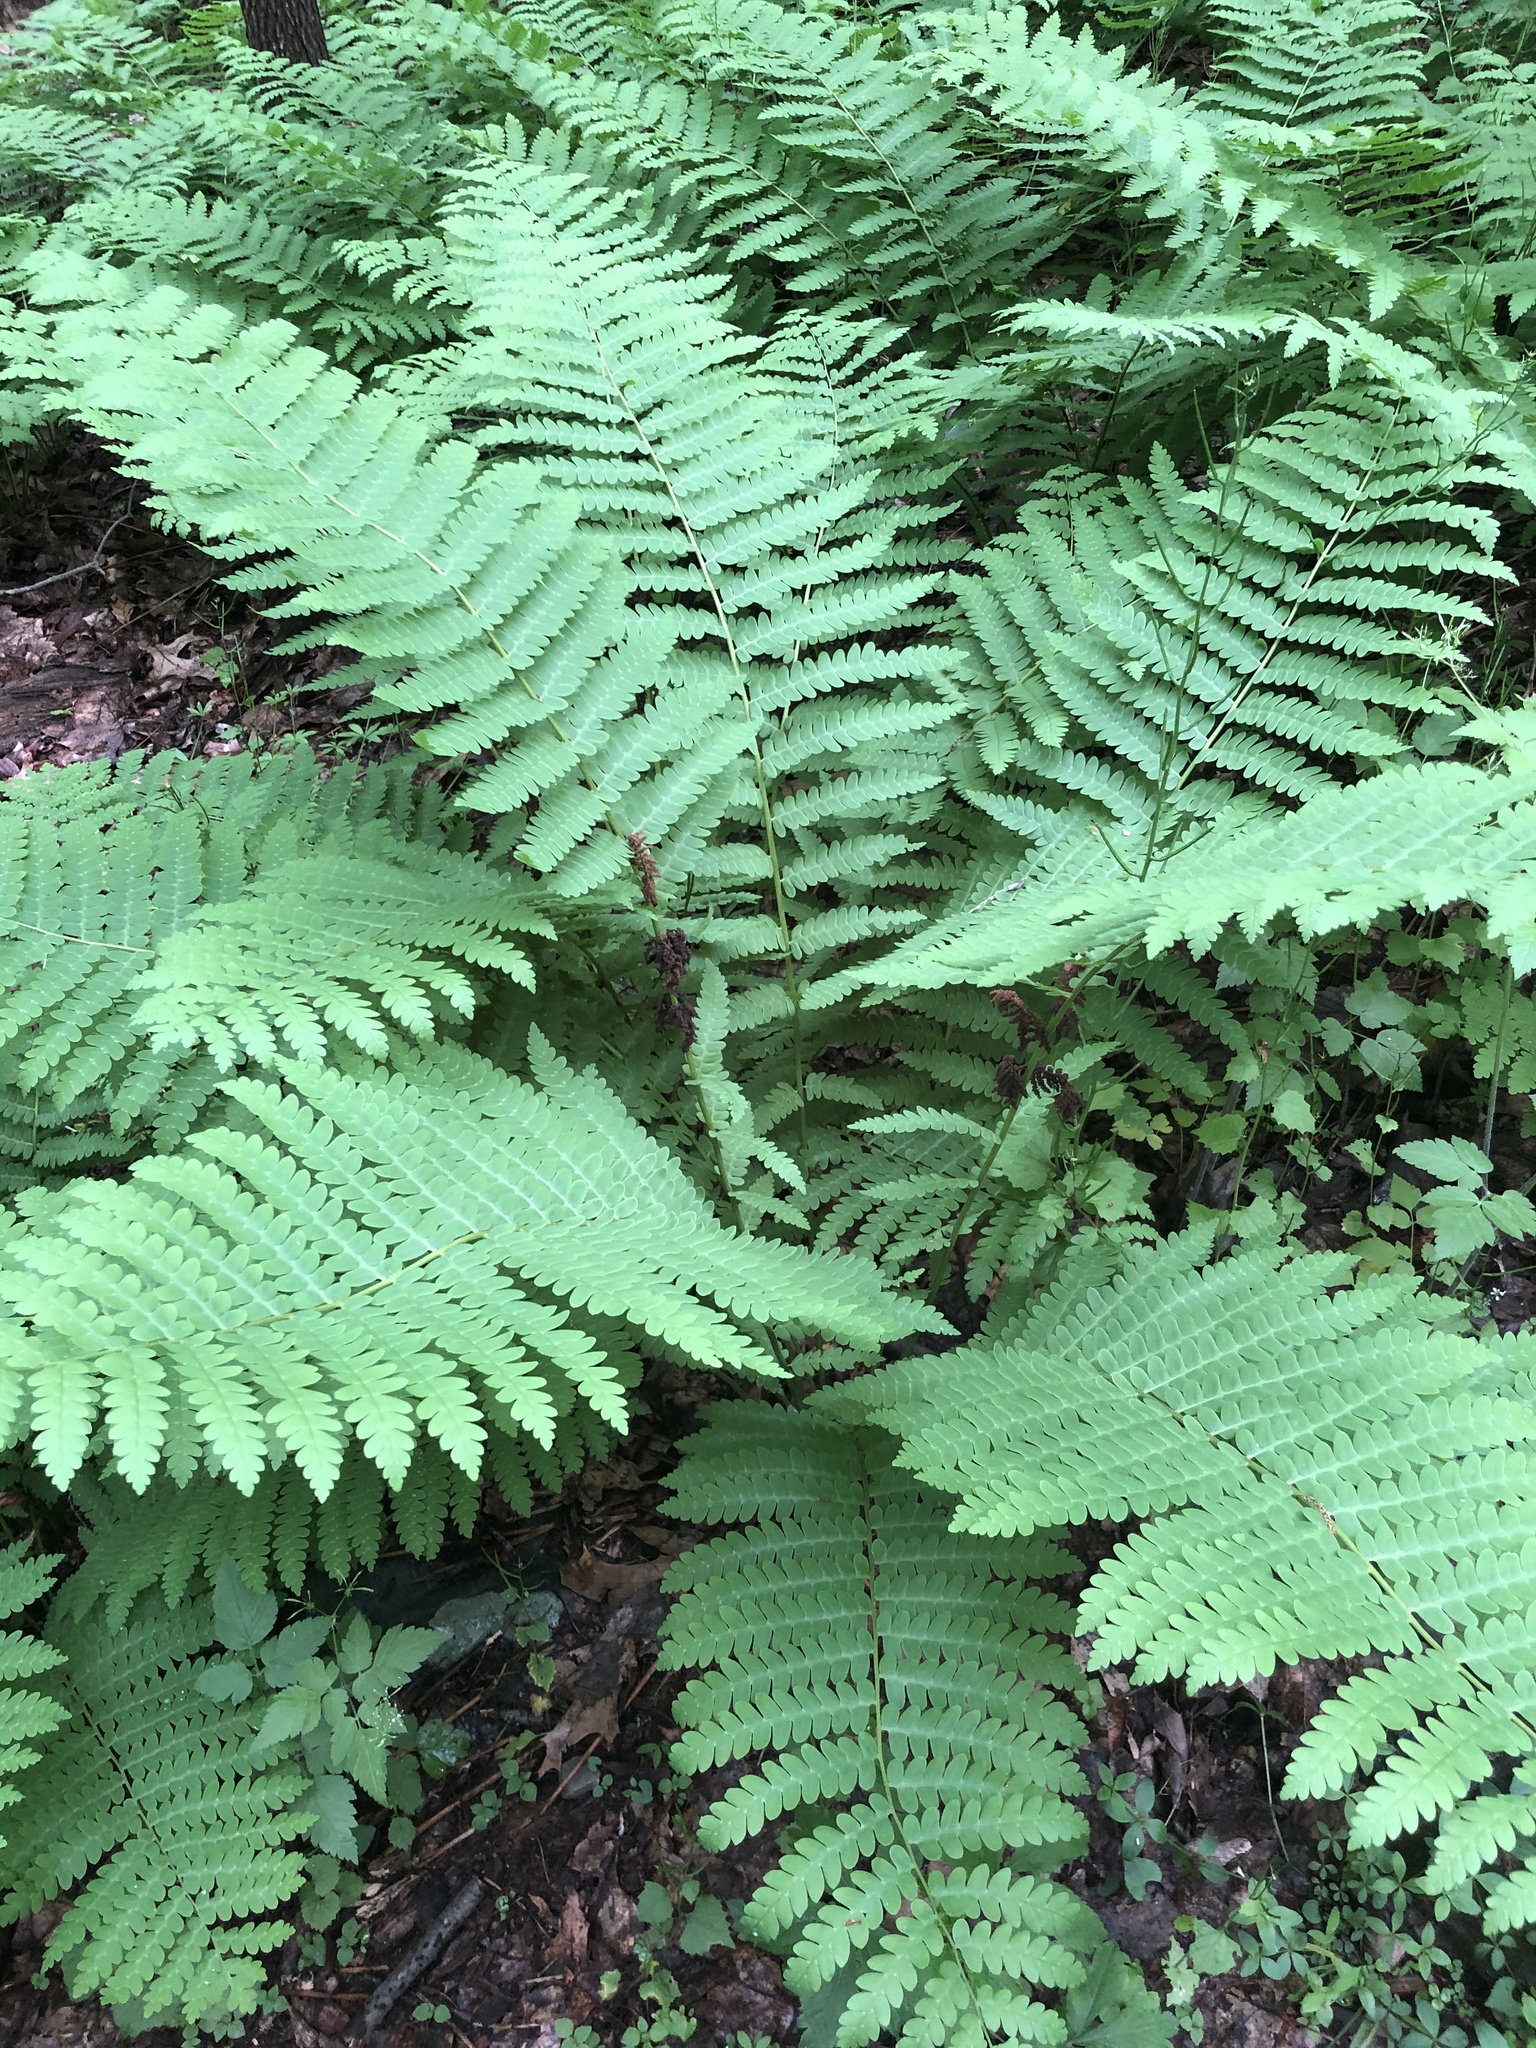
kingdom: Plantae
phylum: Tracheophyta
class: Polypodiopsida
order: Osmundales
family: Osmundaceae
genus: Claytosmunda
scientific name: Claytosmunda claytoniana
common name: Clayton's fern
